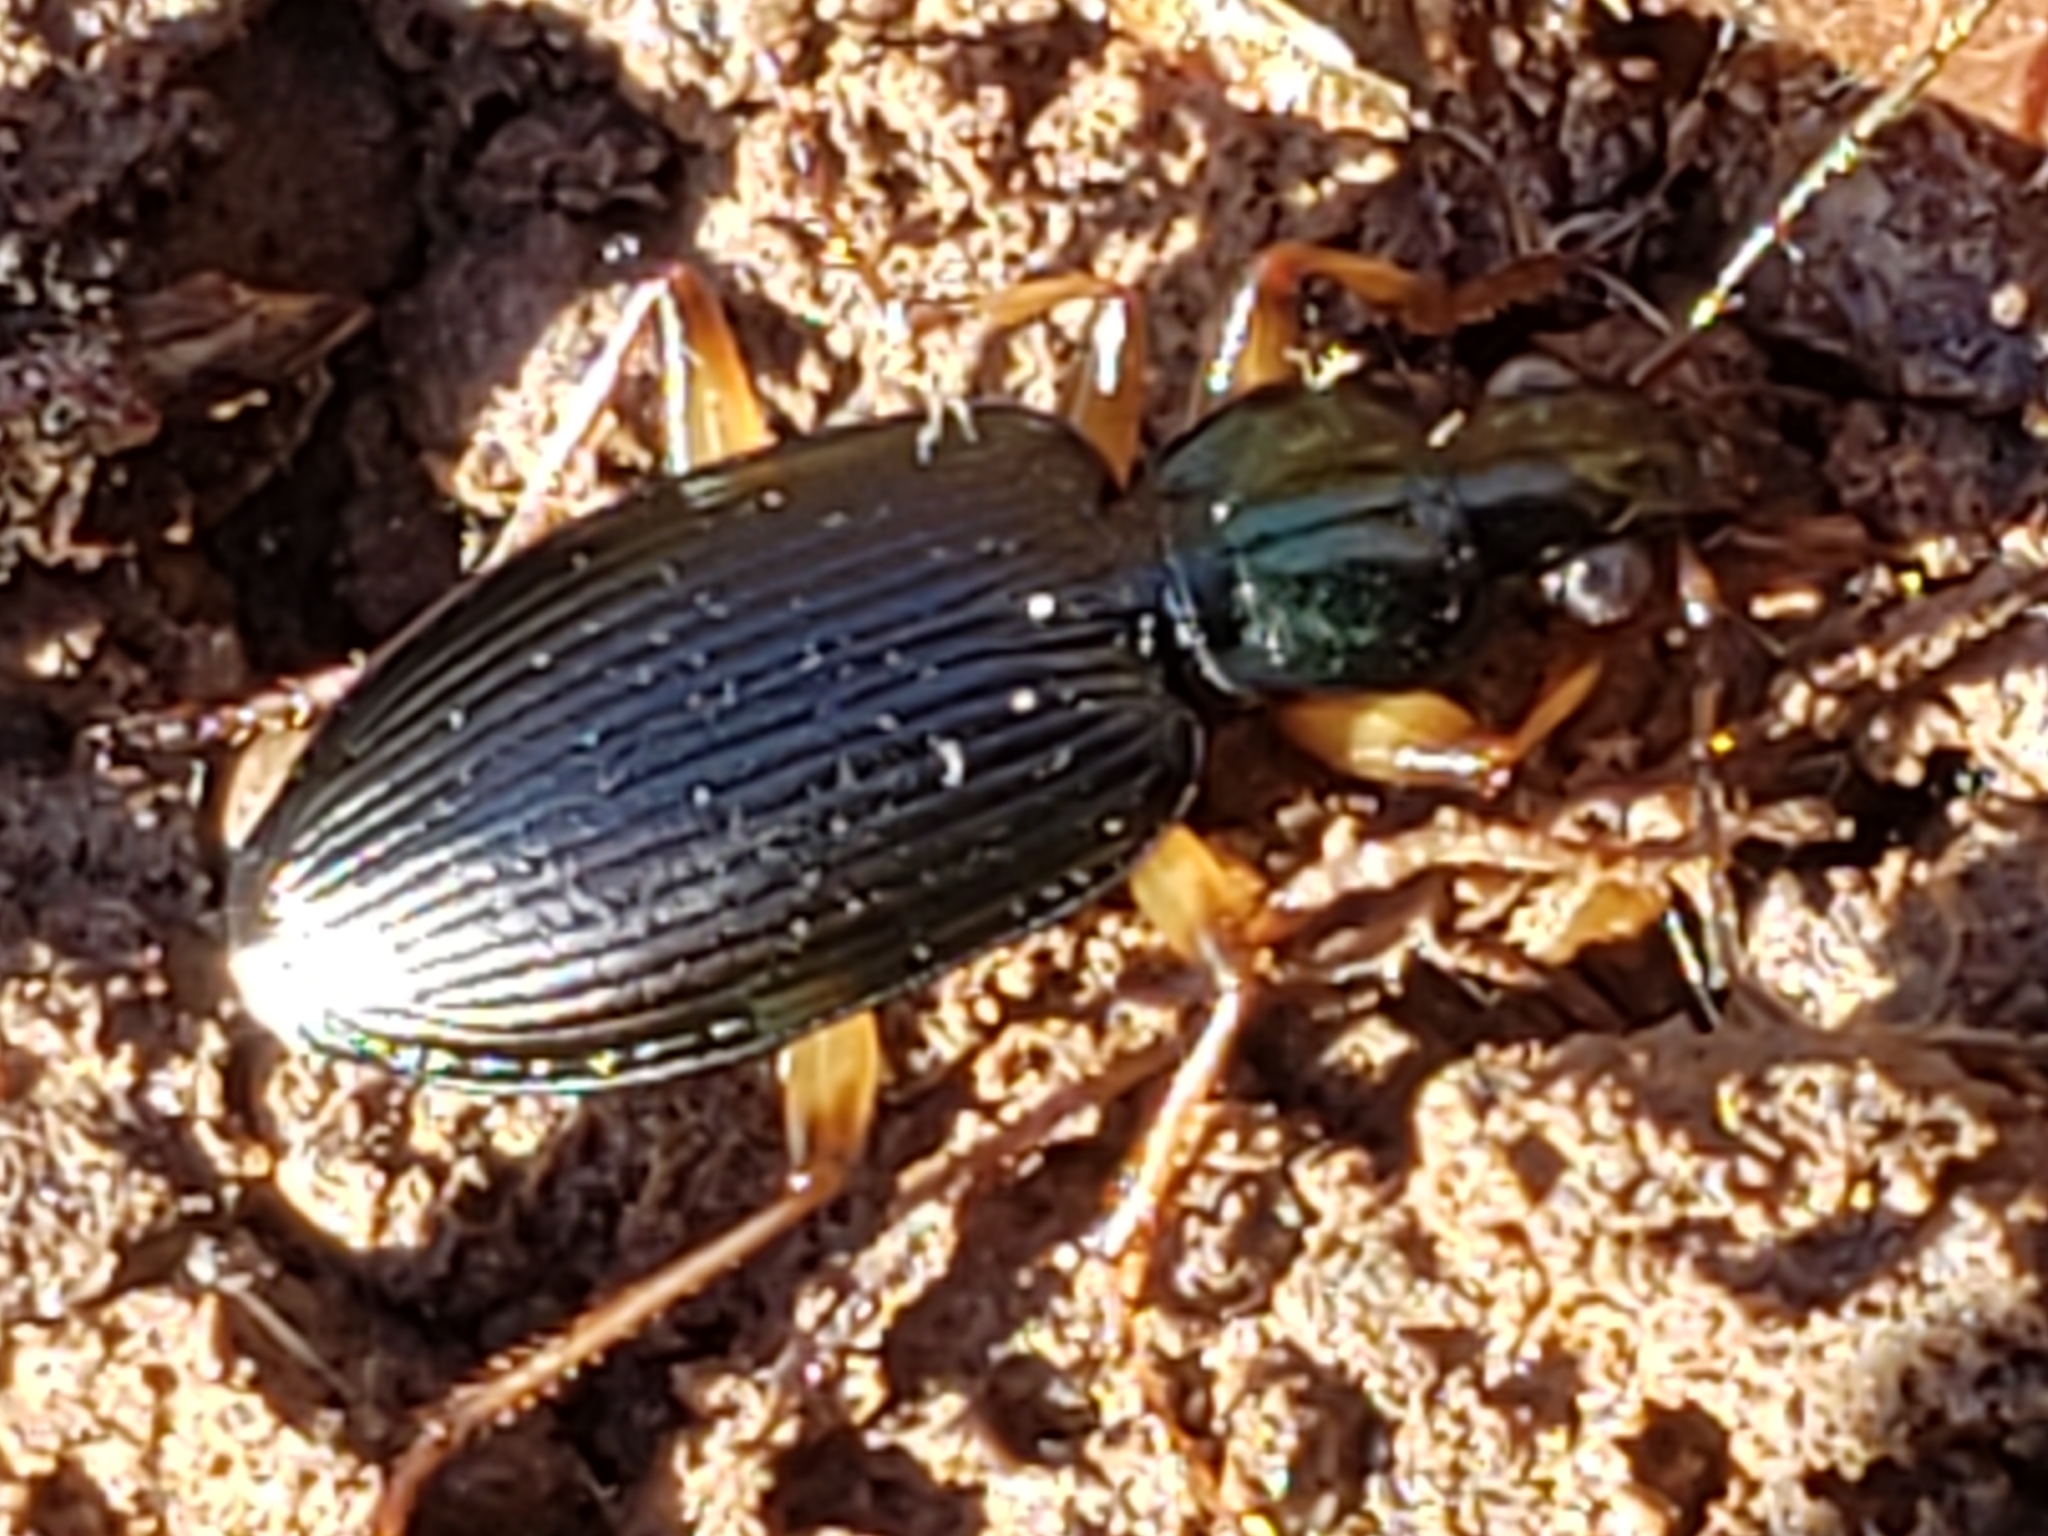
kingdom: Animalia
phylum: Arthropoda
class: Insecta
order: Coleoptera
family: Carabidae
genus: Agonum
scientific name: Agonum extensicolle
